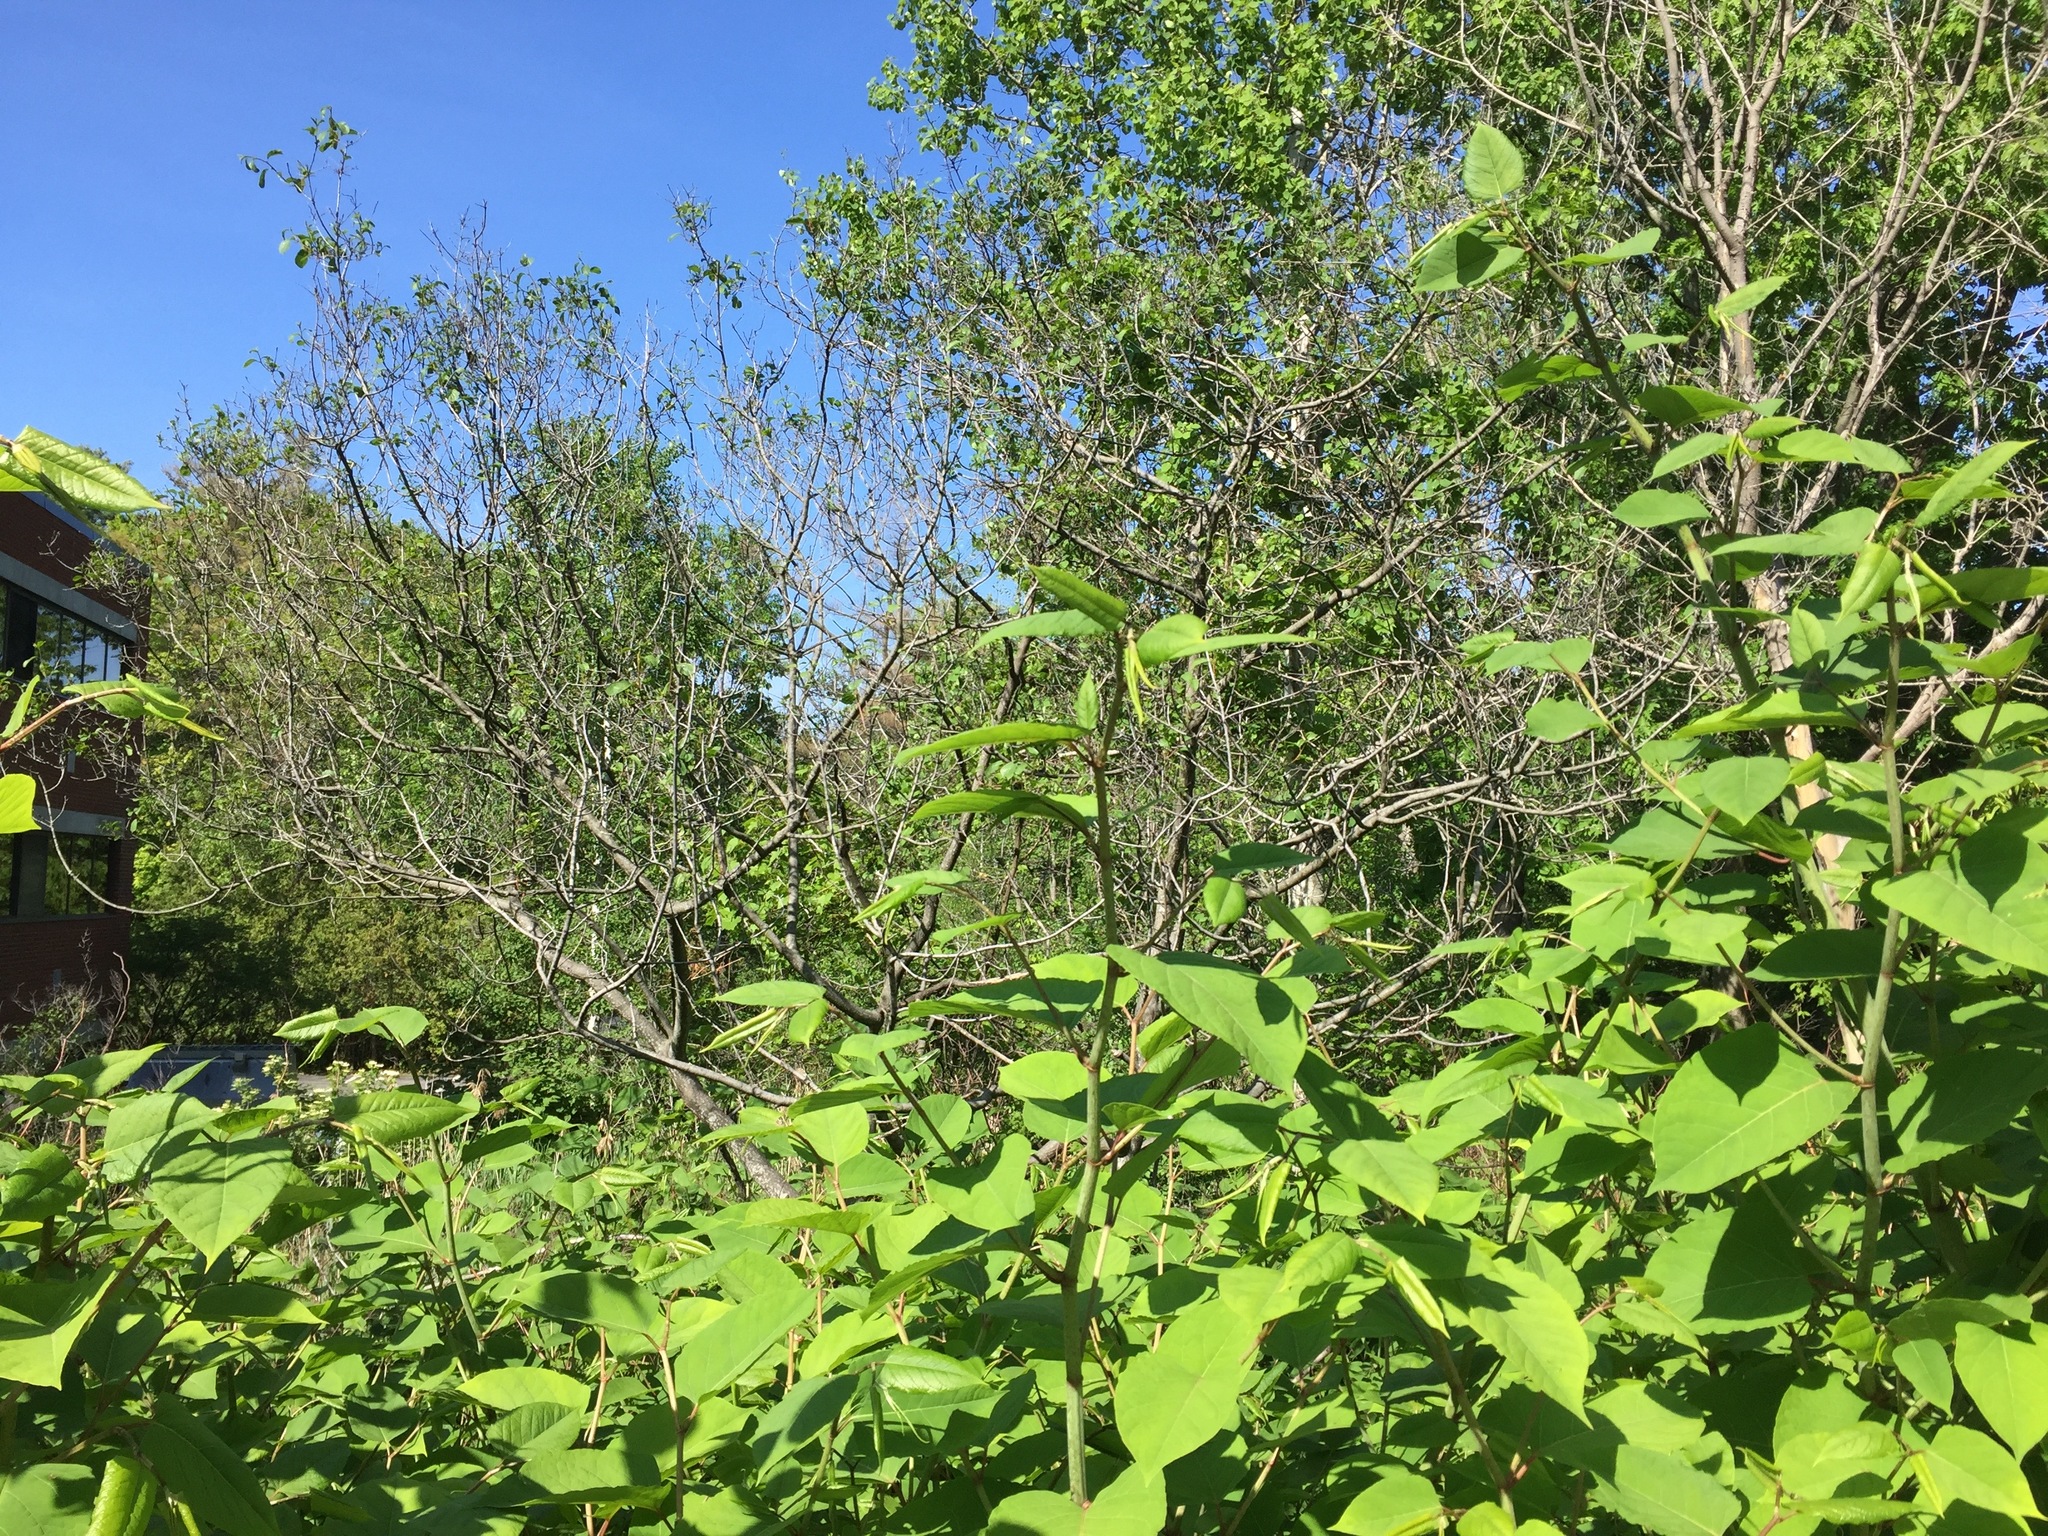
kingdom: Plantae
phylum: Tracheophyta
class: Magnoliopsida
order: Caryophyllales
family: Polygonaceae
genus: Reynoutria
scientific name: Reynoutria japonica
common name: Japanese knotweed
